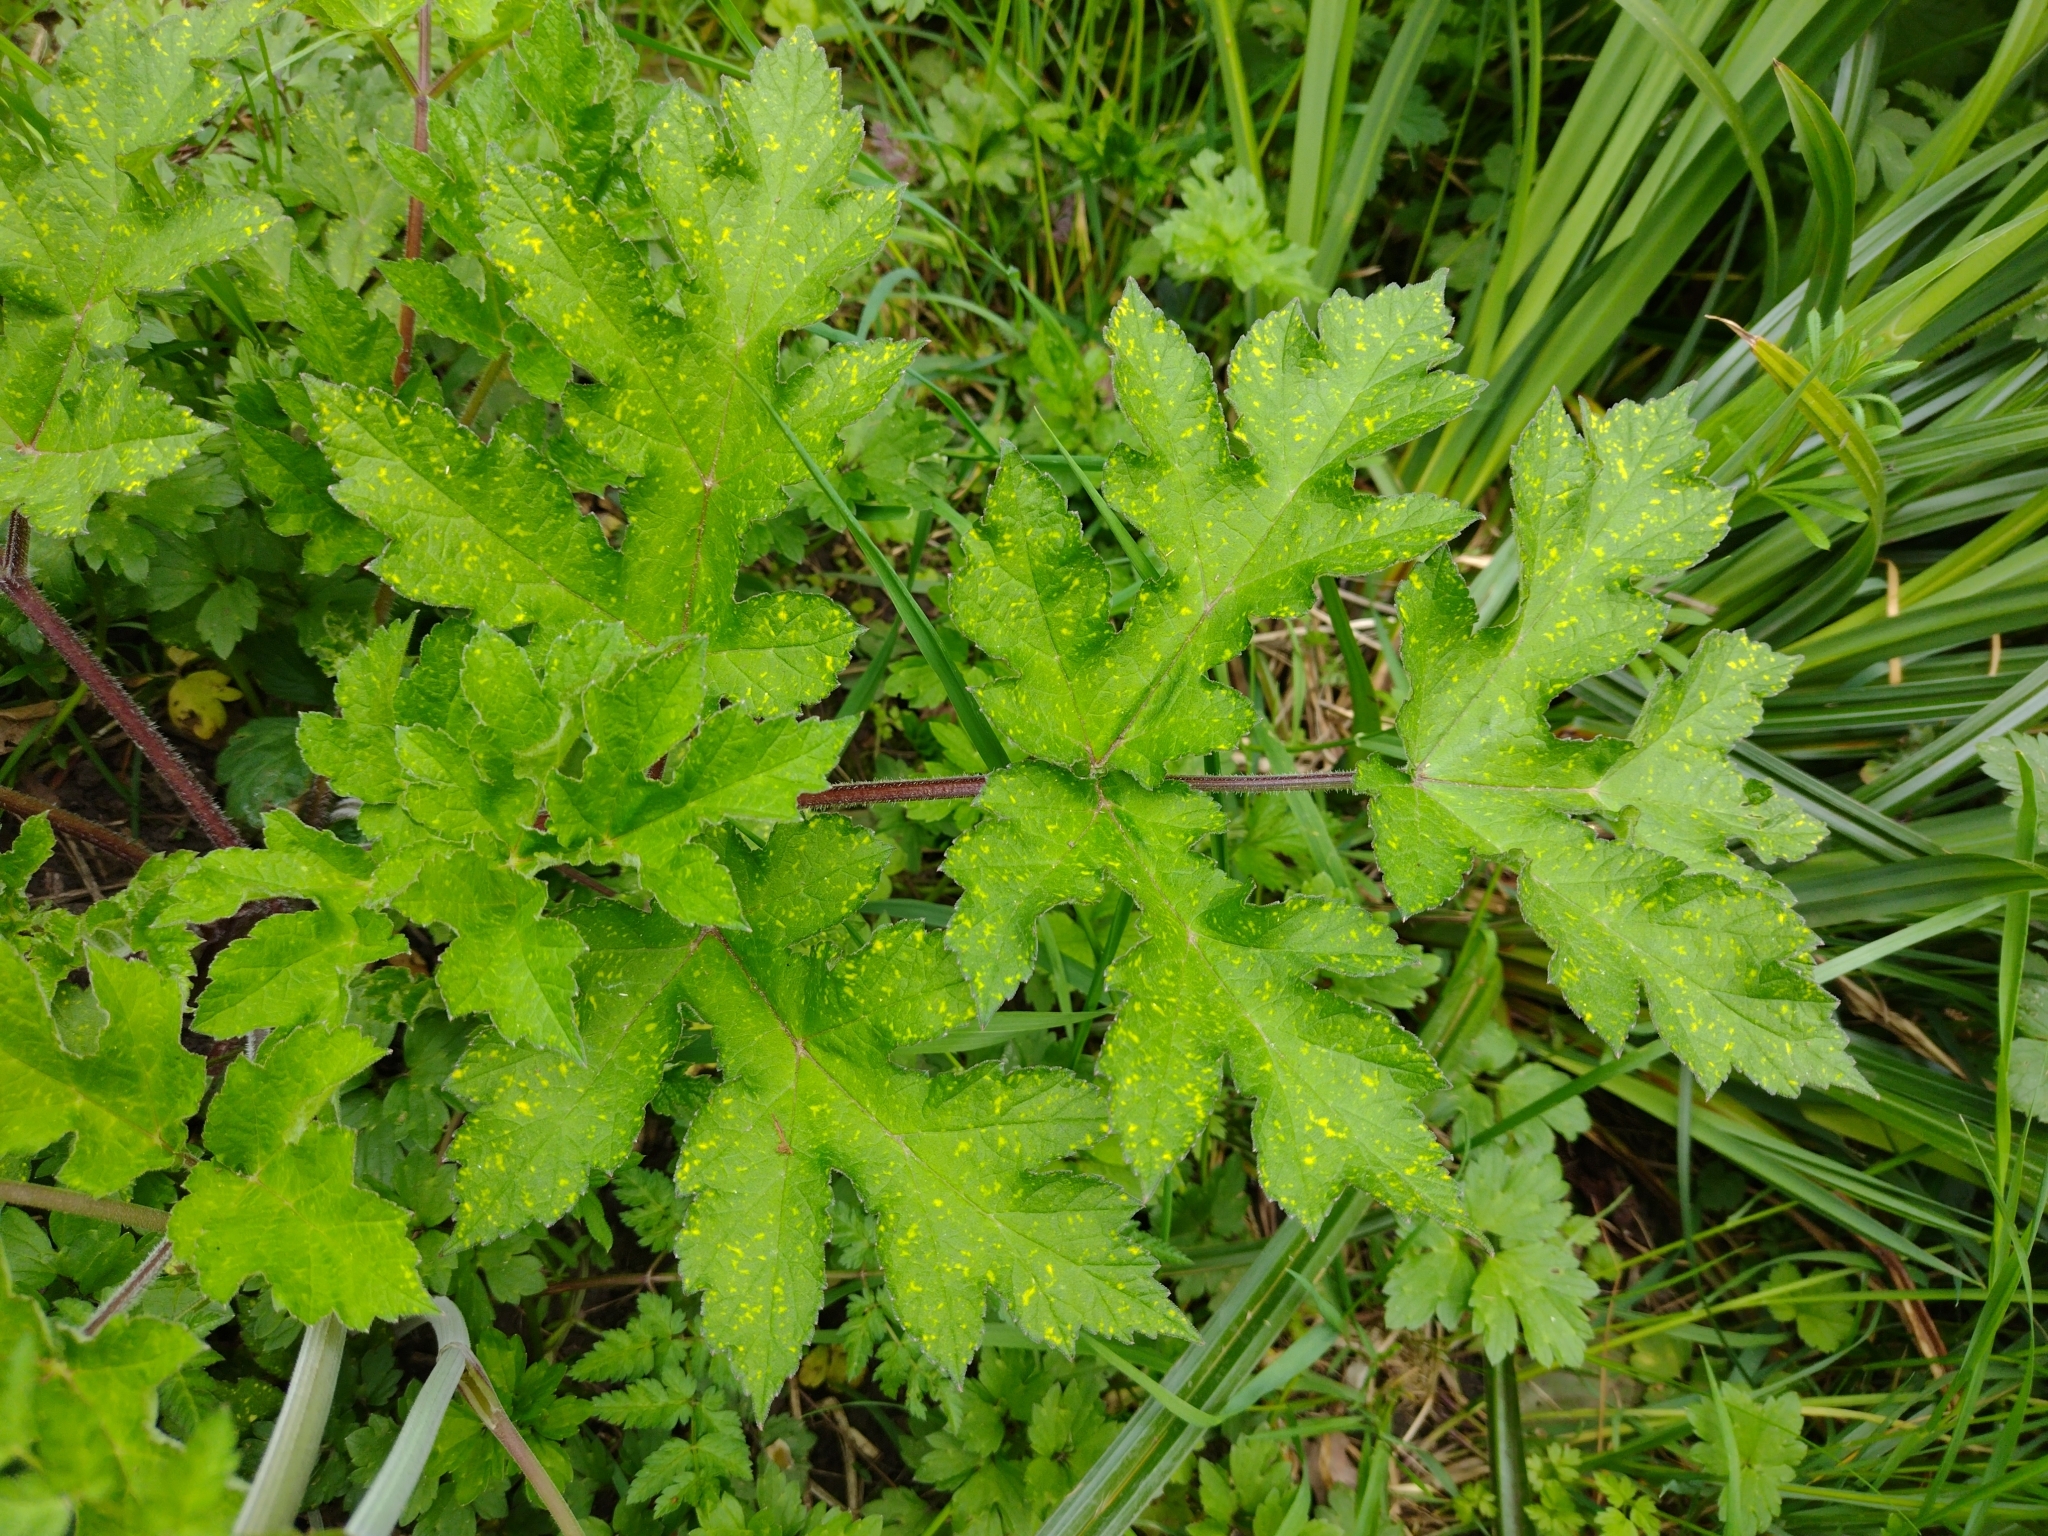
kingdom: Plantae
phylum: Tracheophyta
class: Magnoliopsida
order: Apiales
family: Apiaceae
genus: Heracleum
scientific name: Heracleum sphondylium
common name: Hogweed
